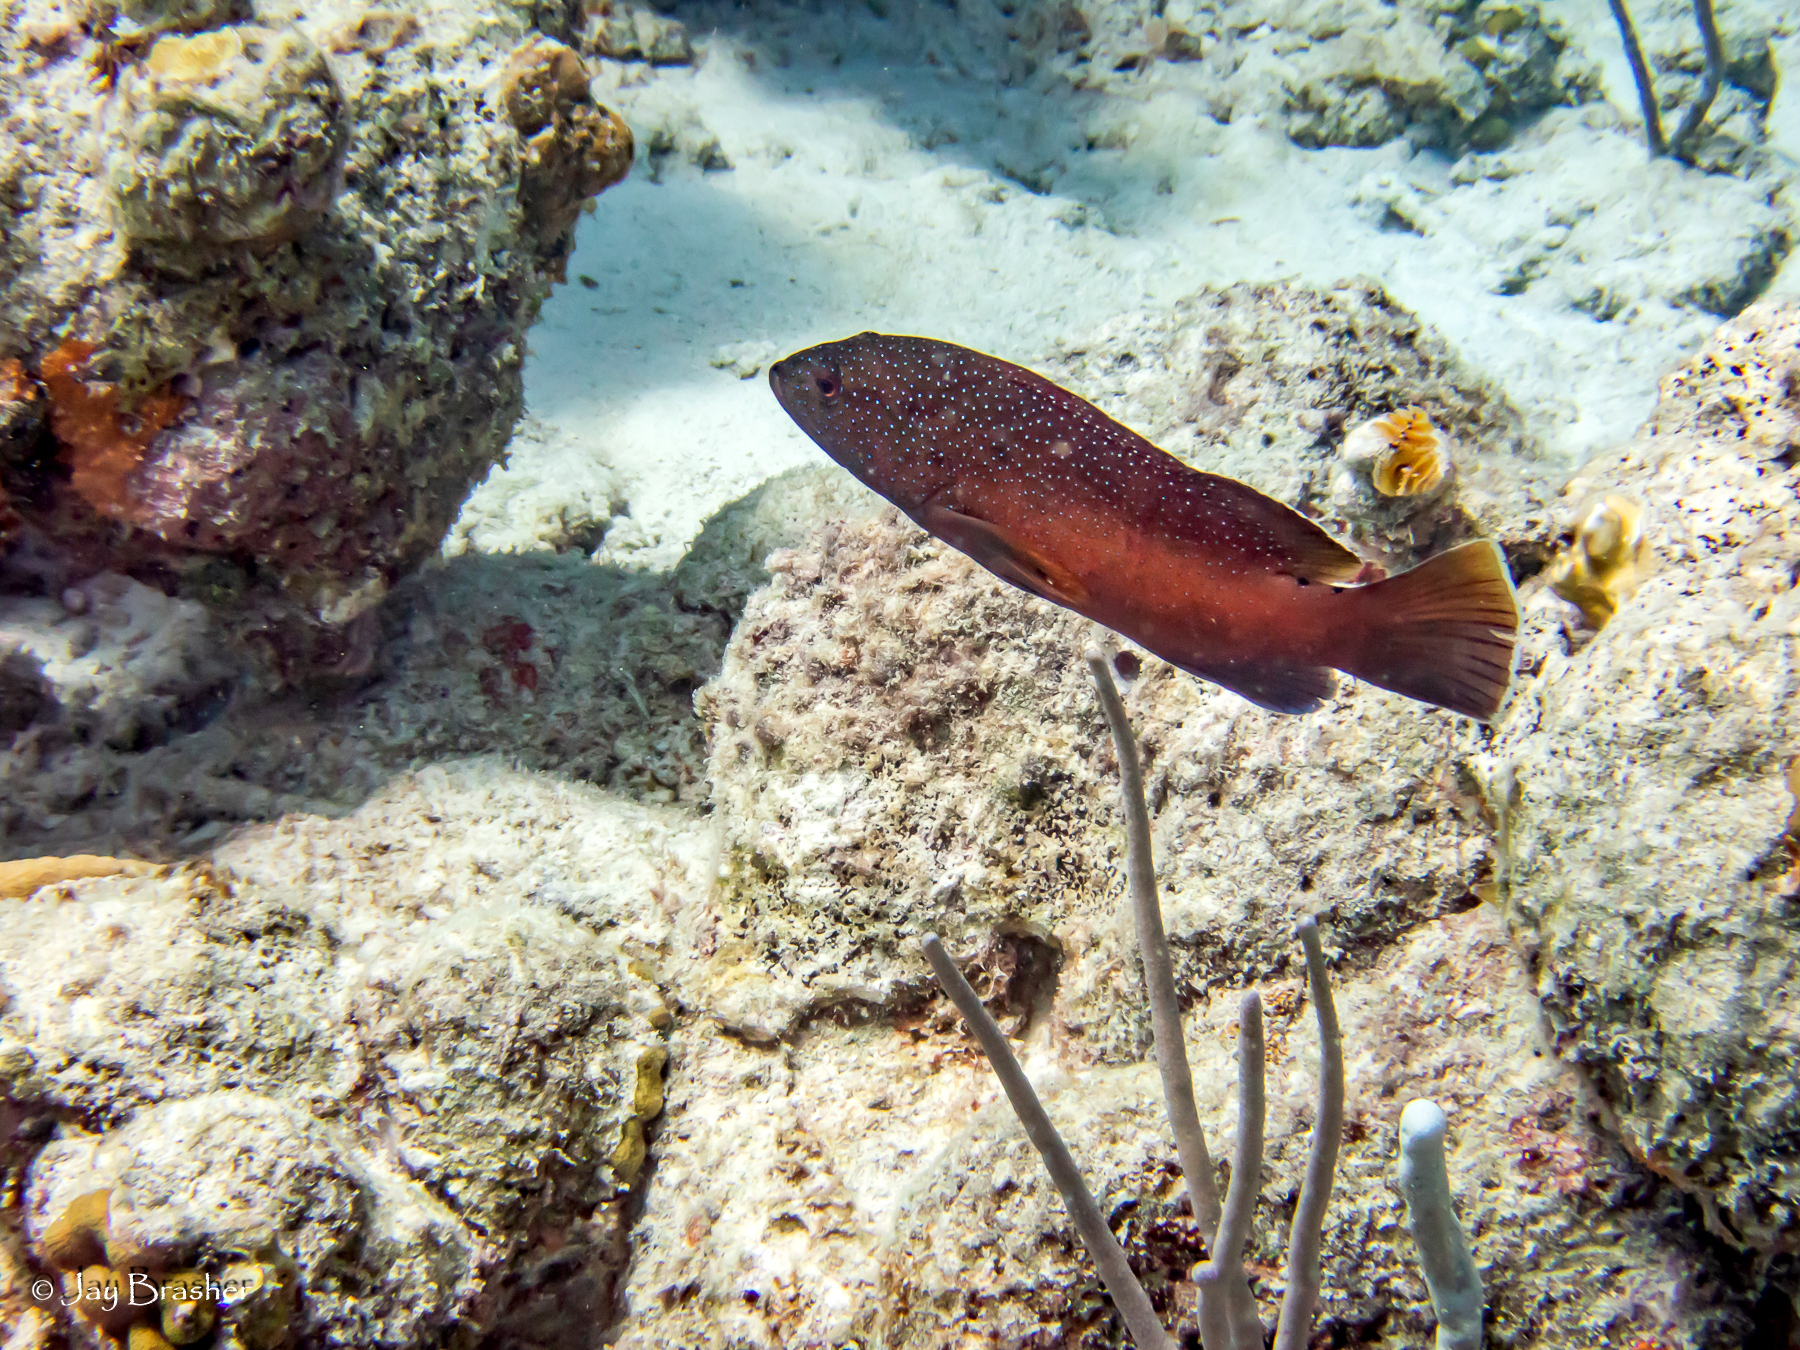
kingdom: Animalia
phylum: Chordata
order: Perciformes
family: Serranidae
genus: Cephalopholis
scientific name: Cephalopholis fulva
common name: Butterfish
